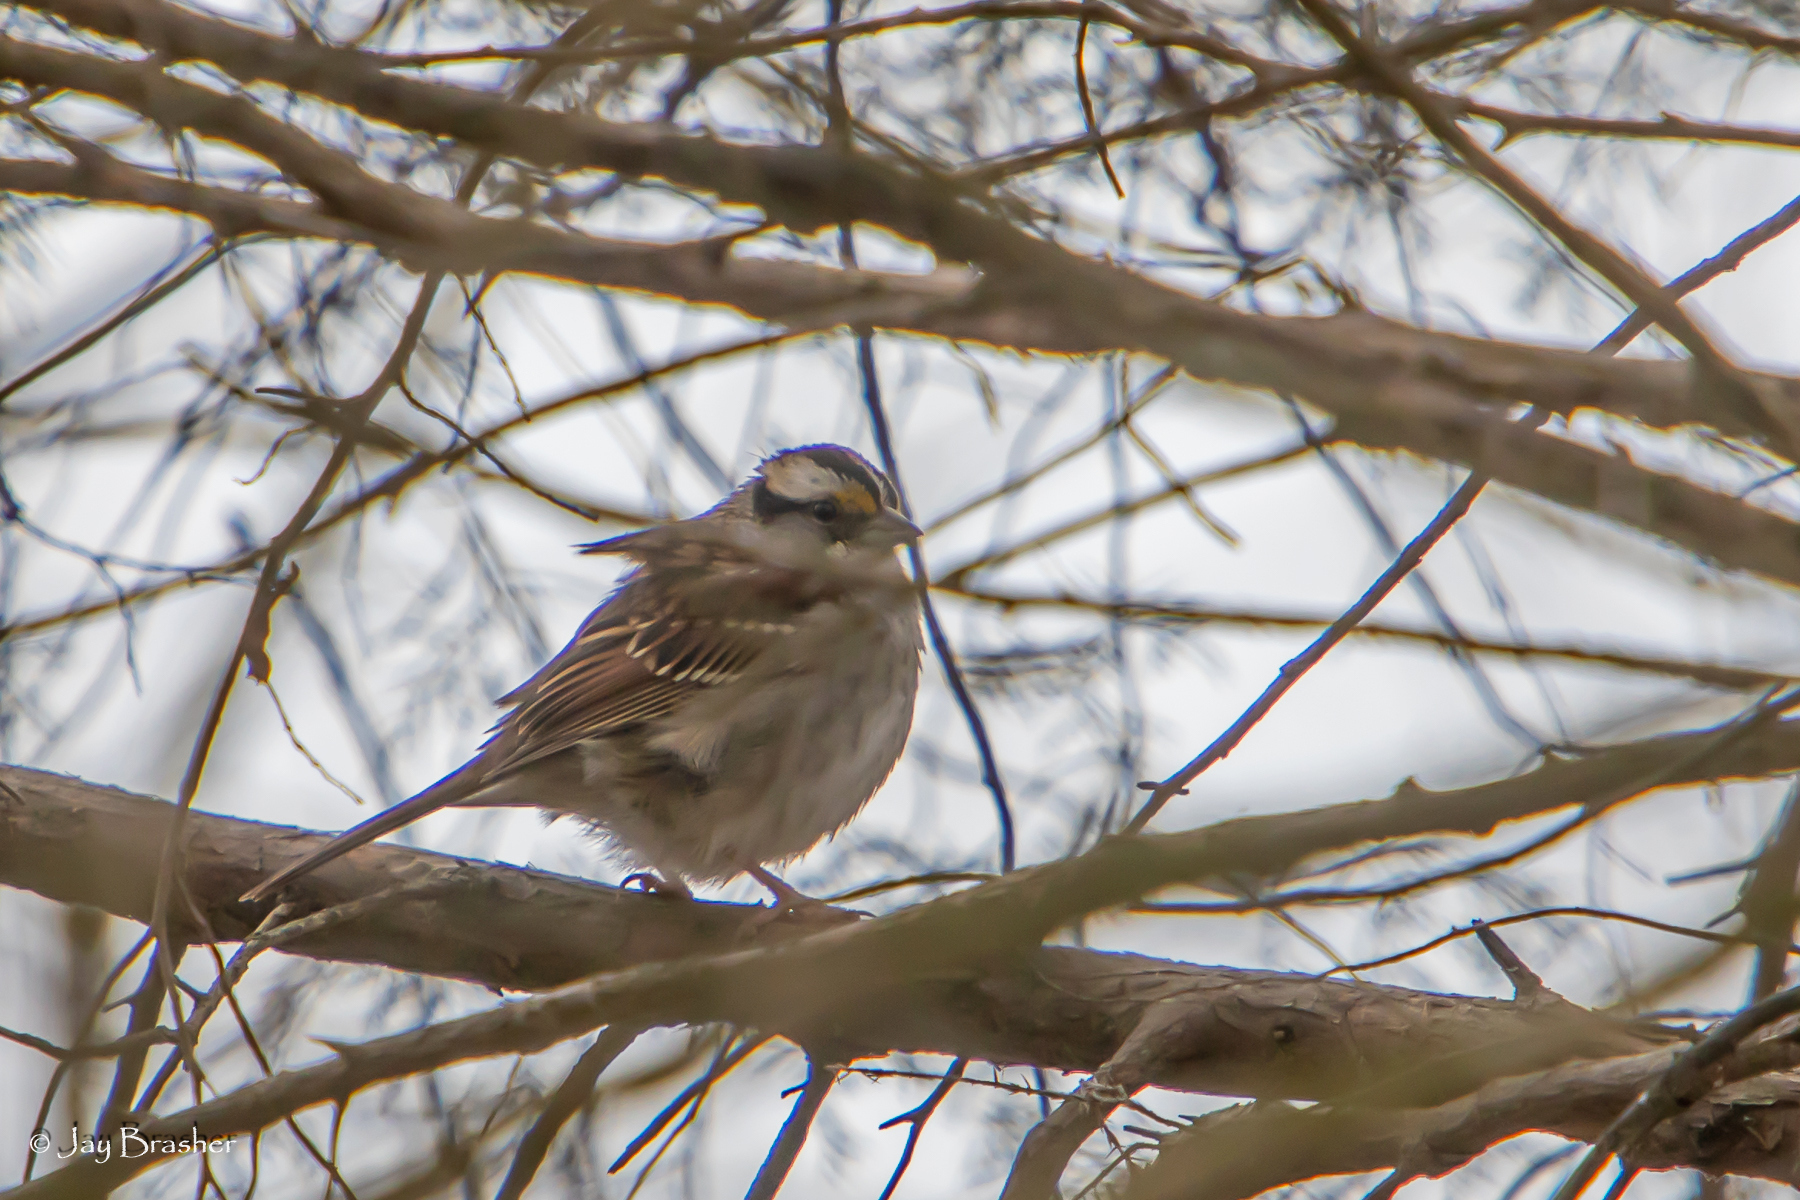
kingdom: Animalia
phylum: Chordata
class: Aves
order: Passeriformes
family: Passerellidae
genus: Zonotrichia
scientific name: Zonotrichia albicollis
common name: White-throated sparrow
